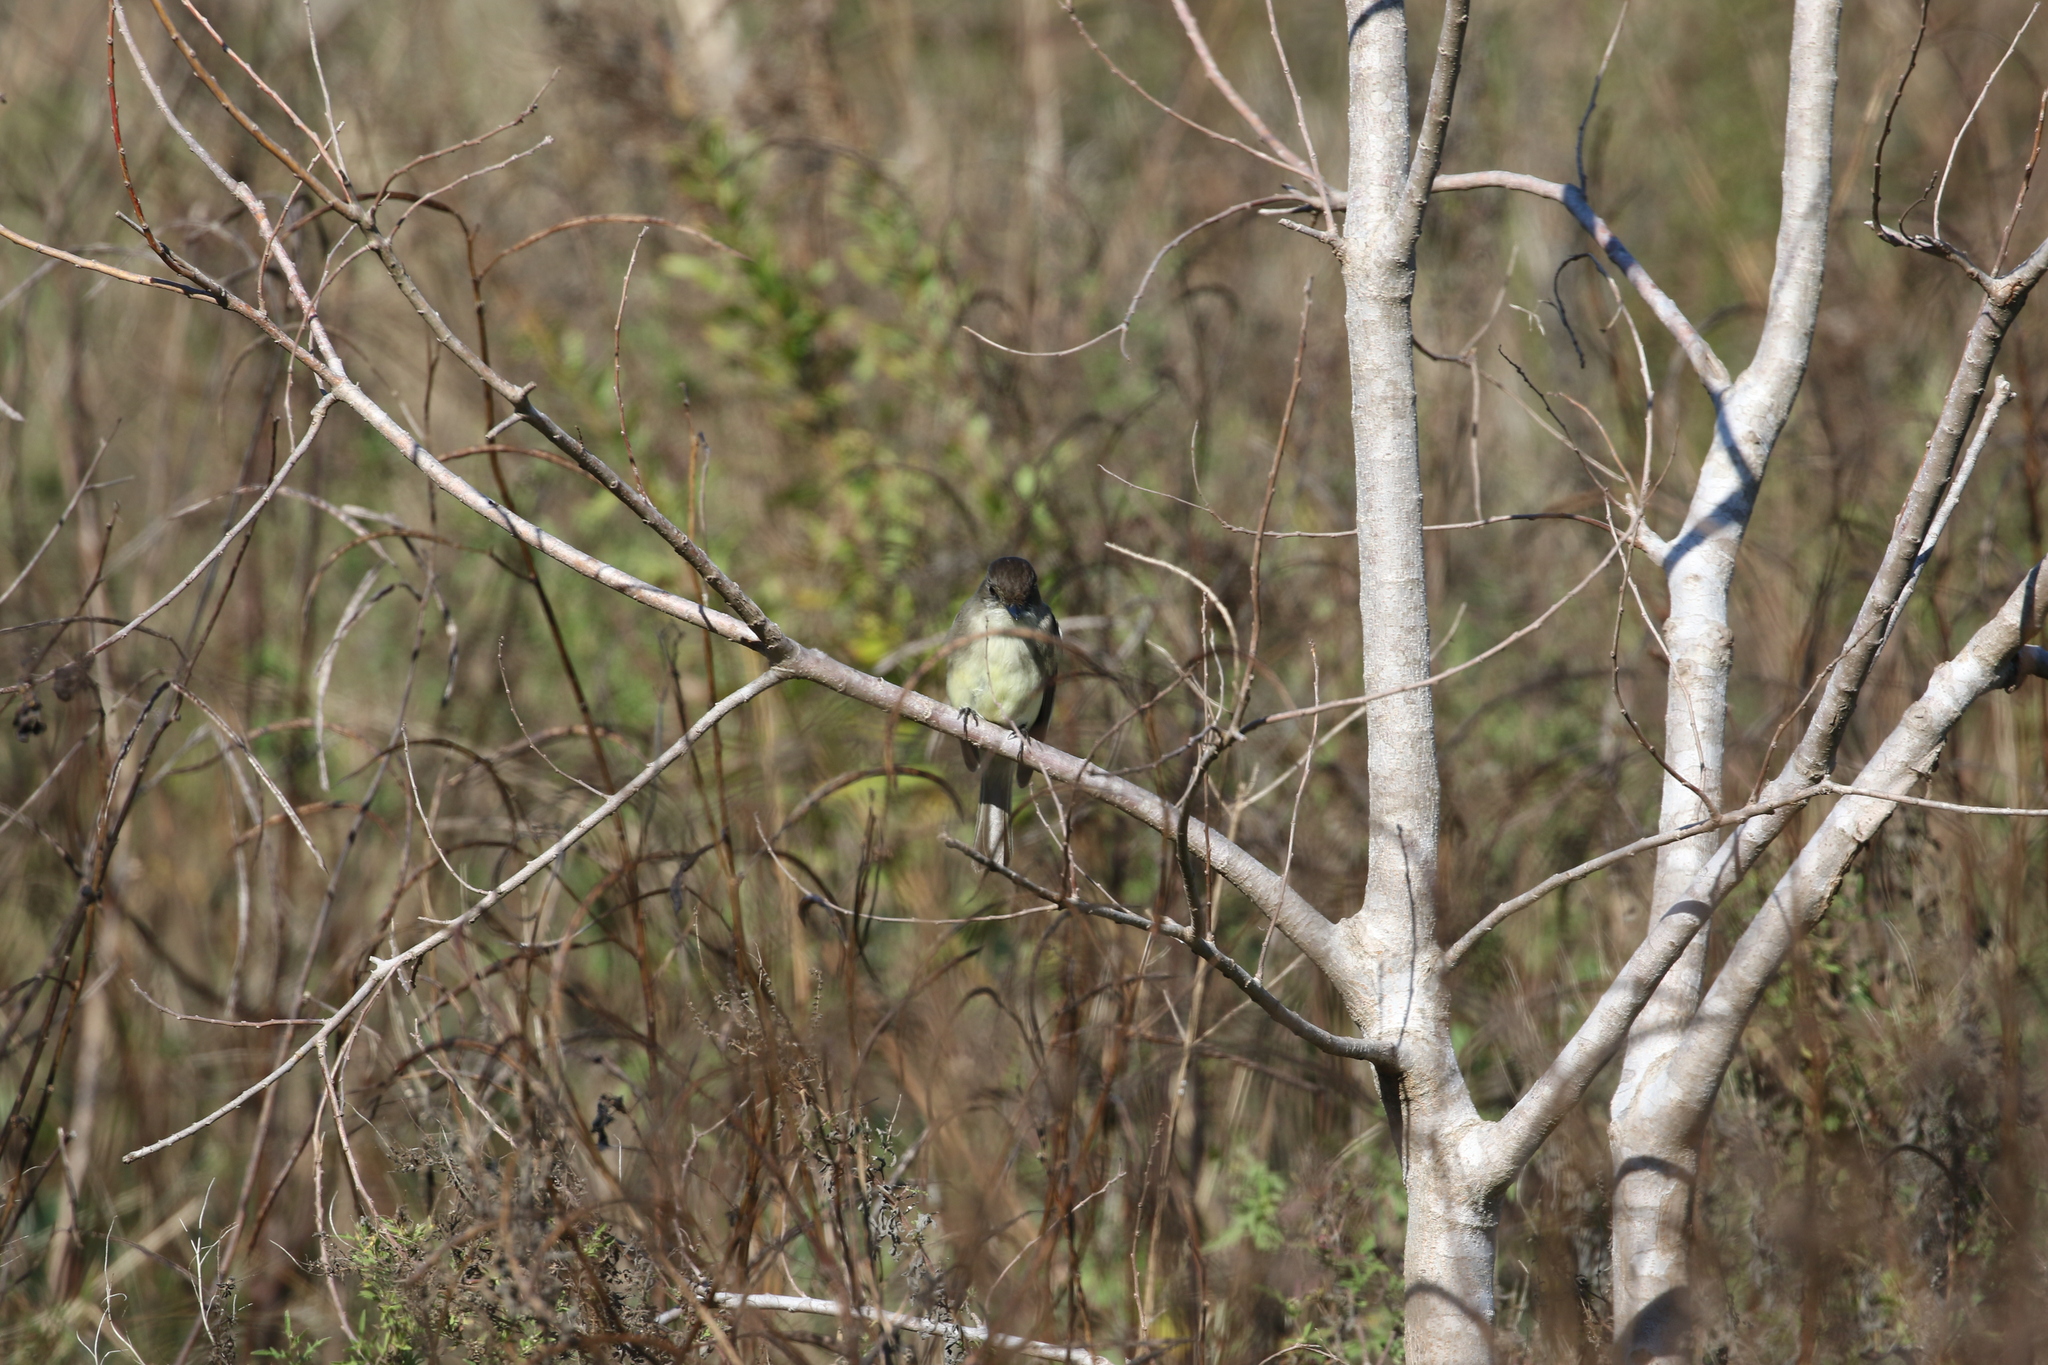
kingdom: Animalia
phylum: Chordata
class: Aves
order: Passeriformes
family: Tyrannidae
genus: Sayornis
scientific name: Sayornis phoebe
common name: Eastern phoebe
